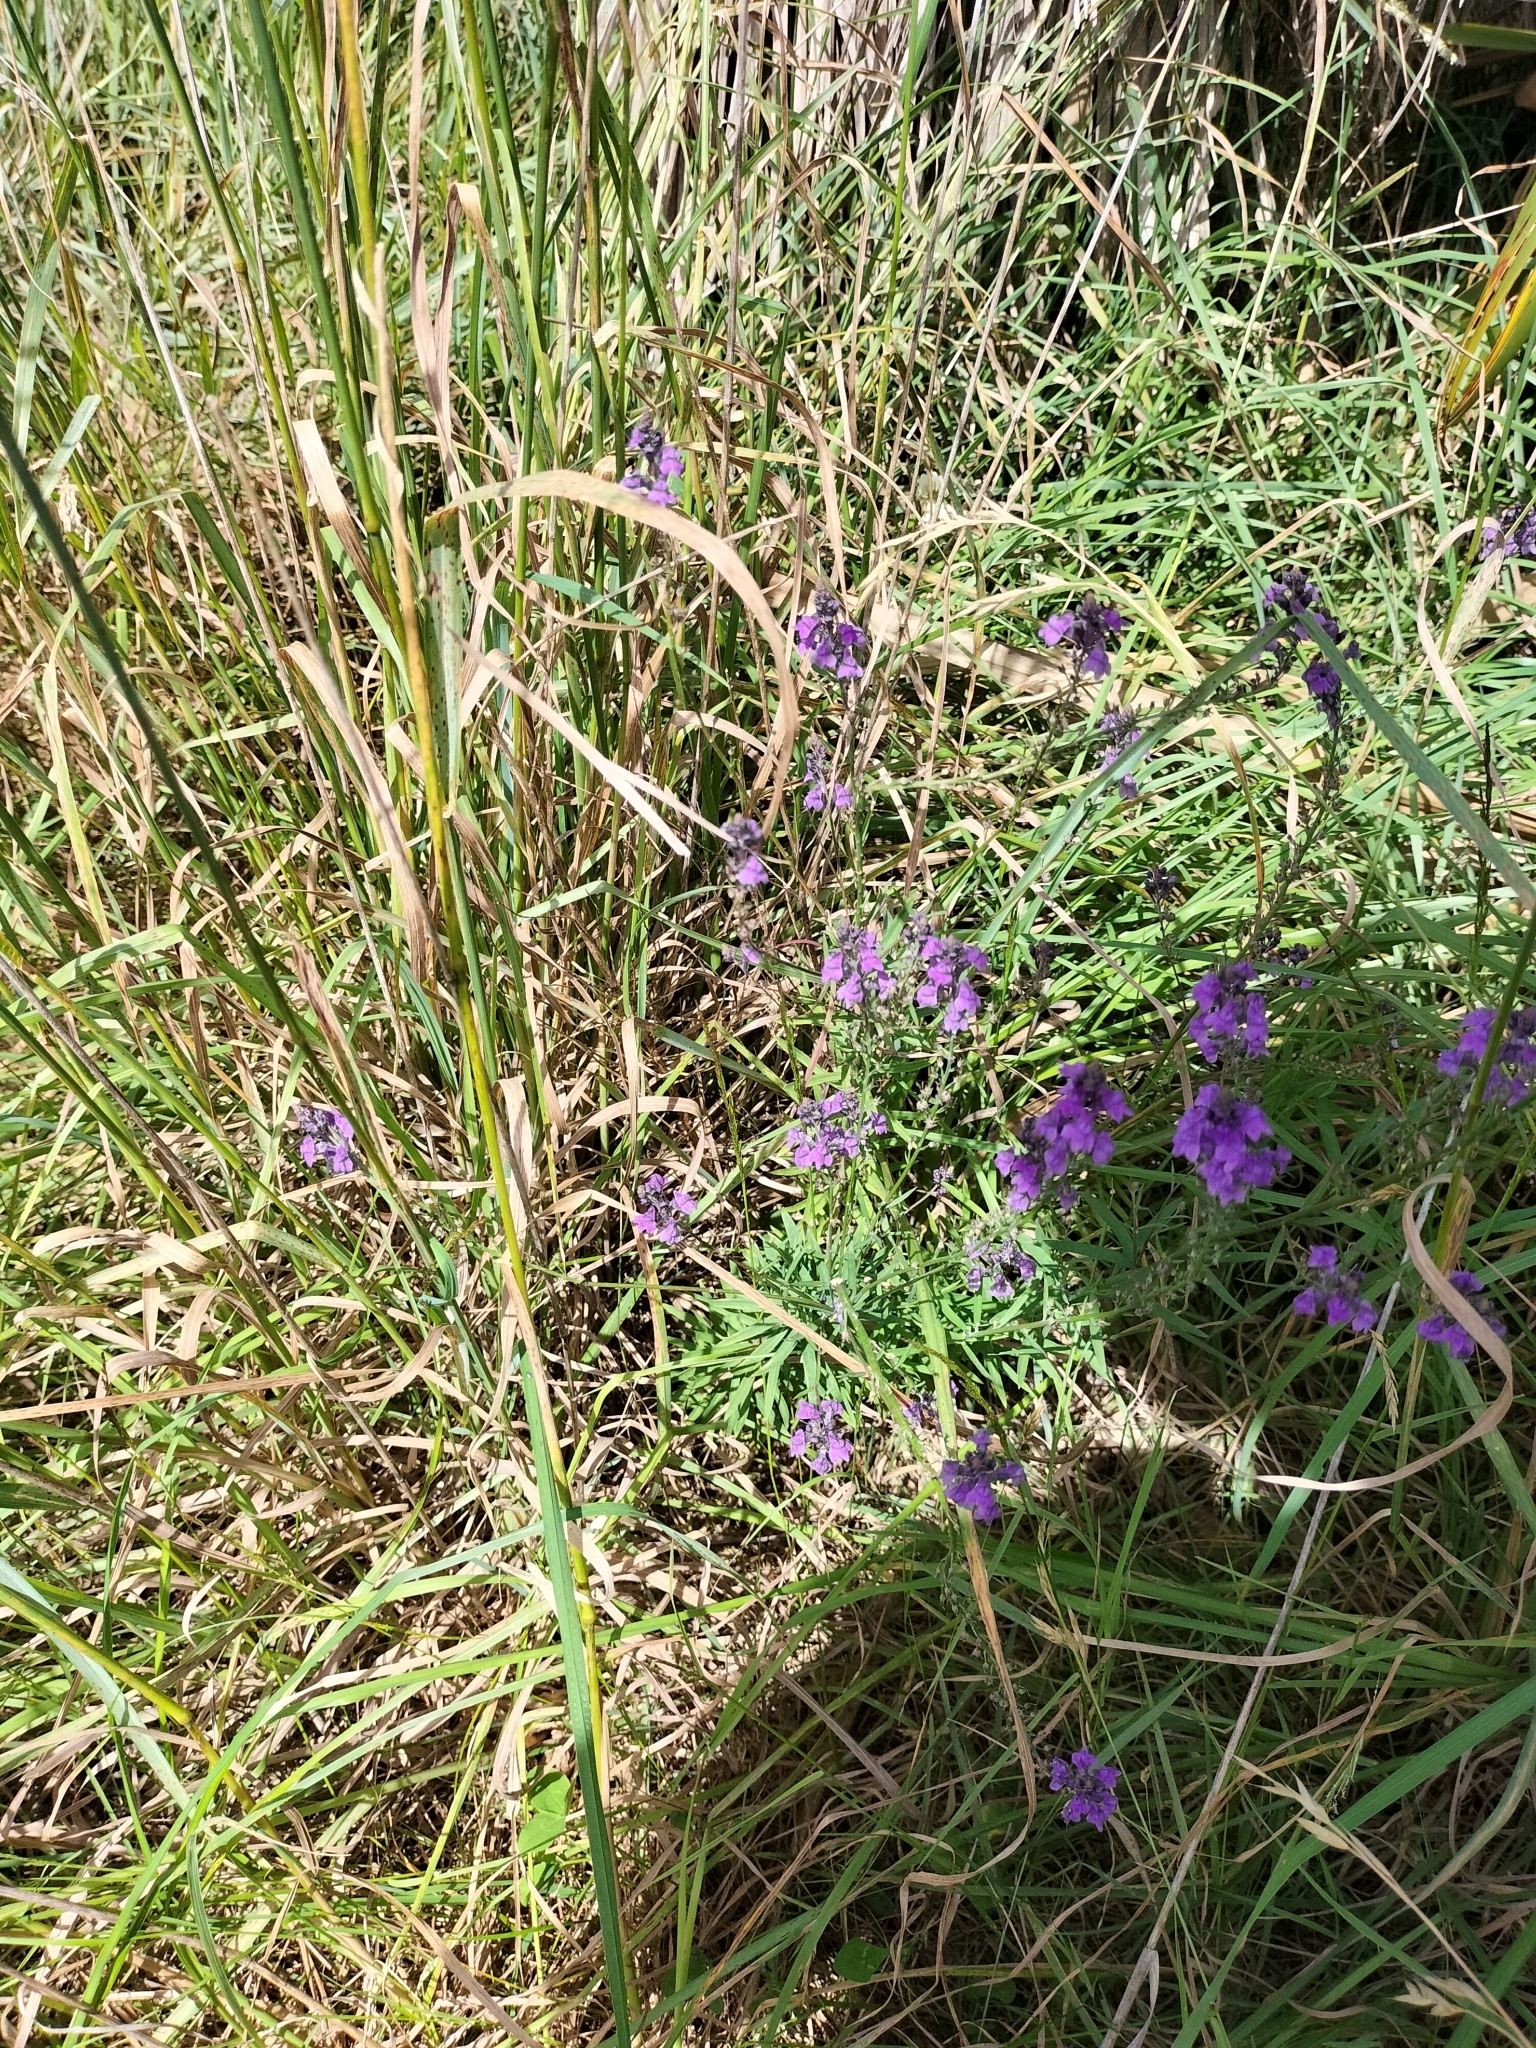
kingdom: Plantae
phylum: Tracheophyta
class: Magnoliopsida
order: Lamiales
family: Plantaginaceae
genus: Linaria
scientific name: Linaria purpurea
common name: Purple toadflax
